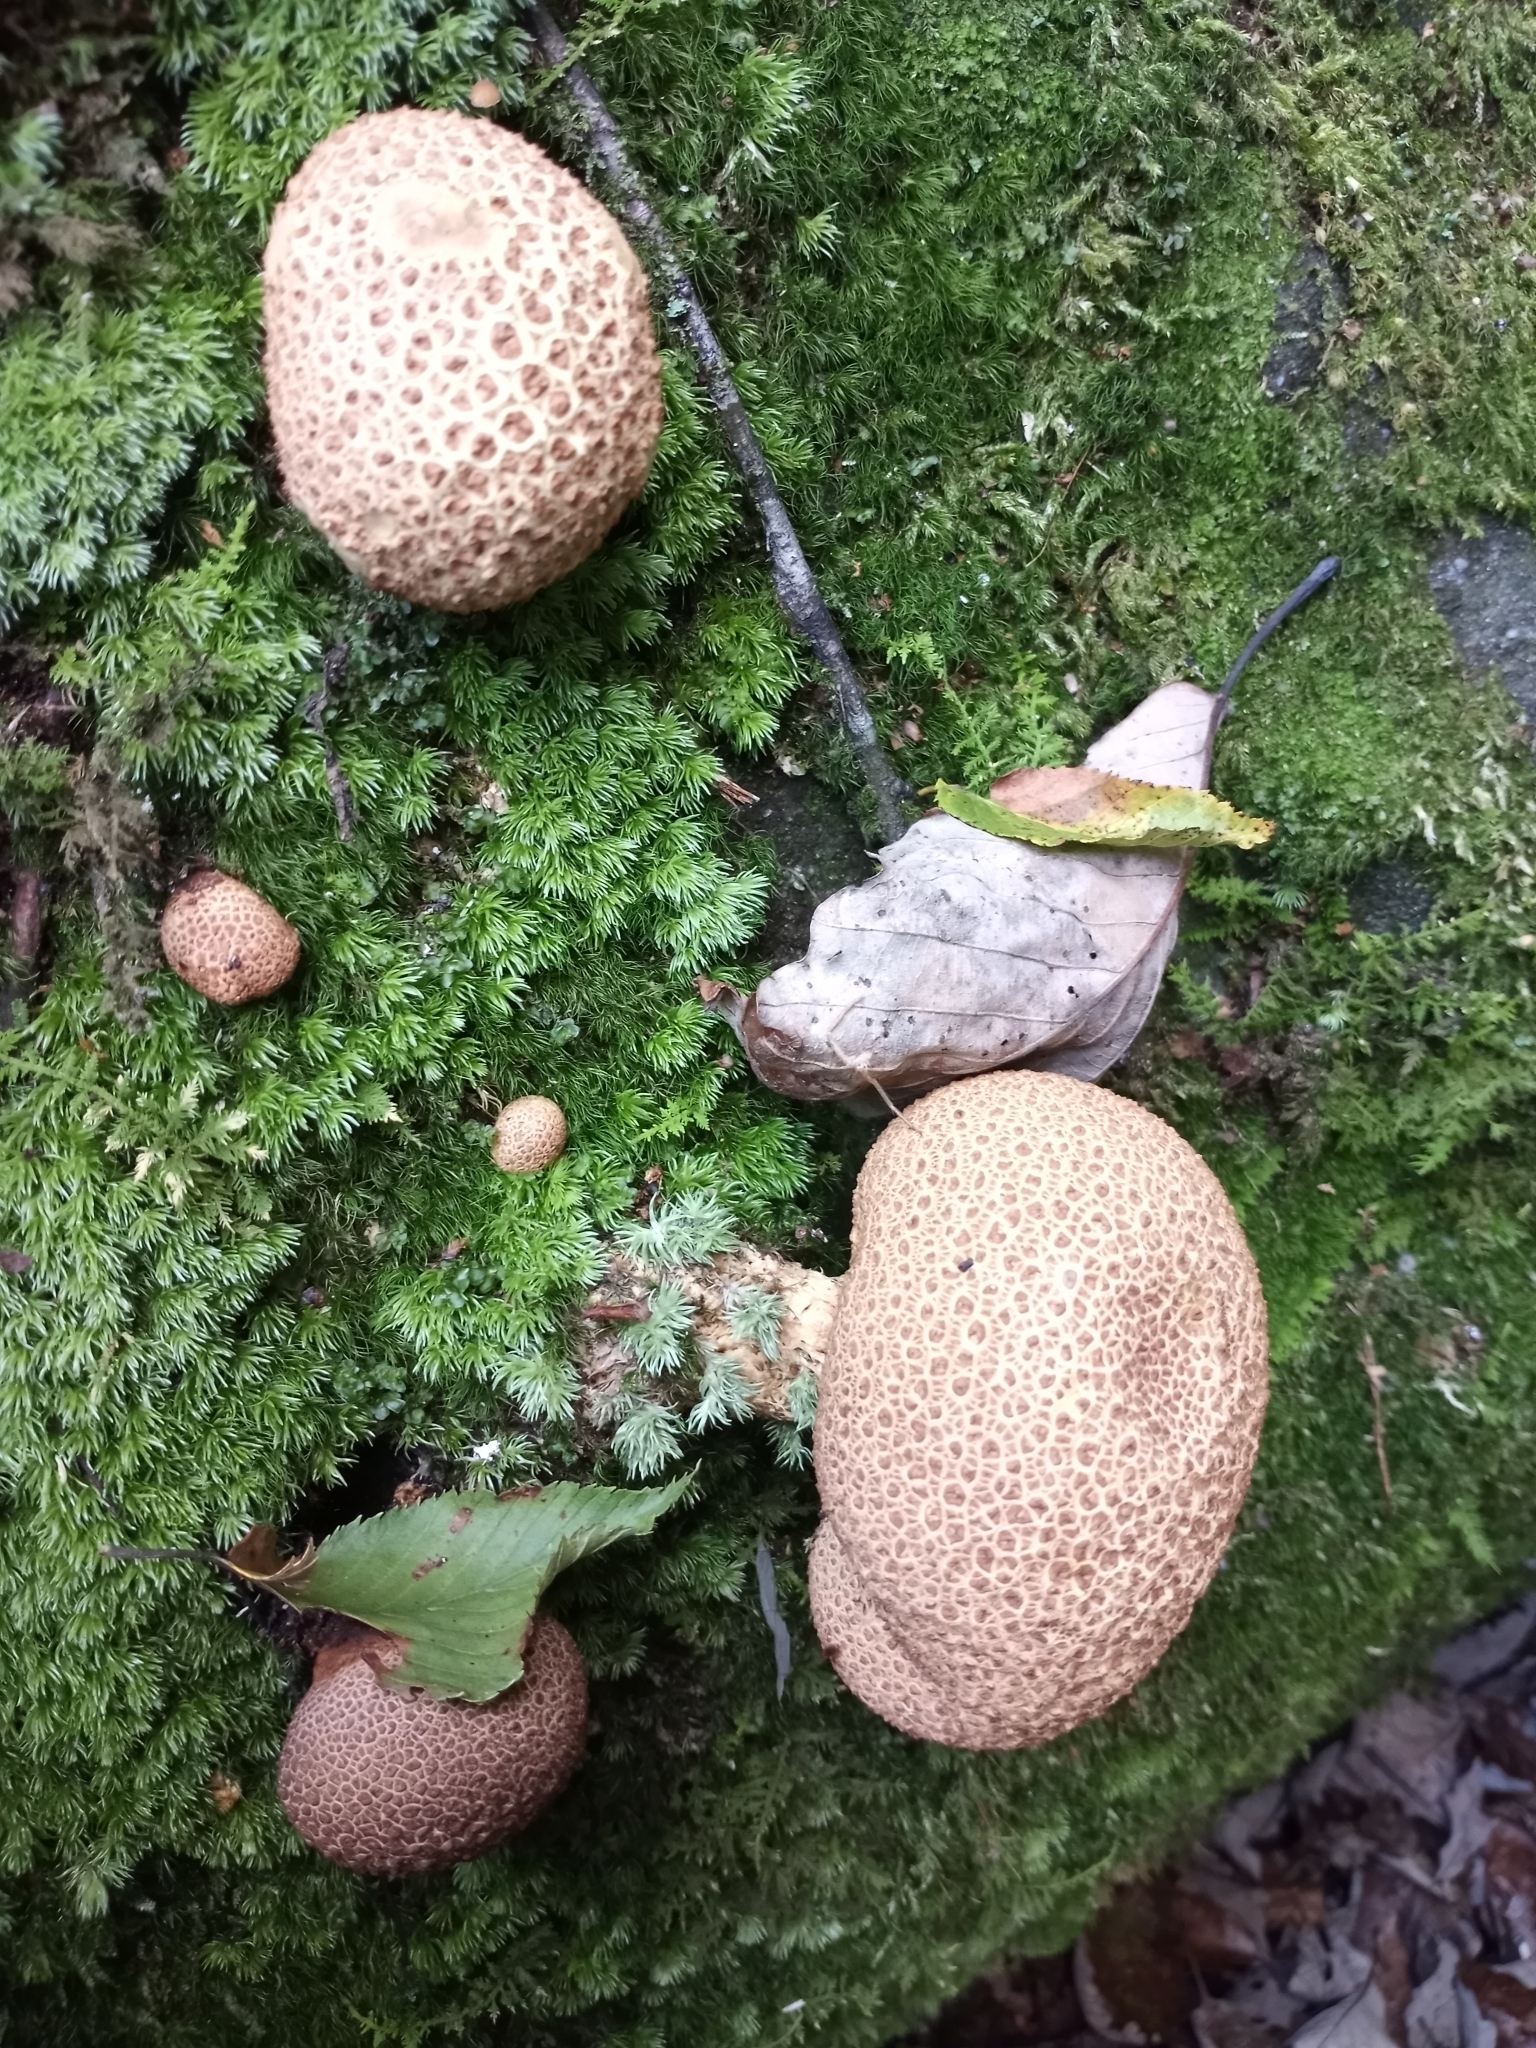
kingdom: Fungi
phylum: Basidiomycota
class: Agaricomycetes
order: Boletales
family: Sclerodermataceae
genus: Scleroderma
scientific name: Scleroderma citrinum
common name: Common earthball
